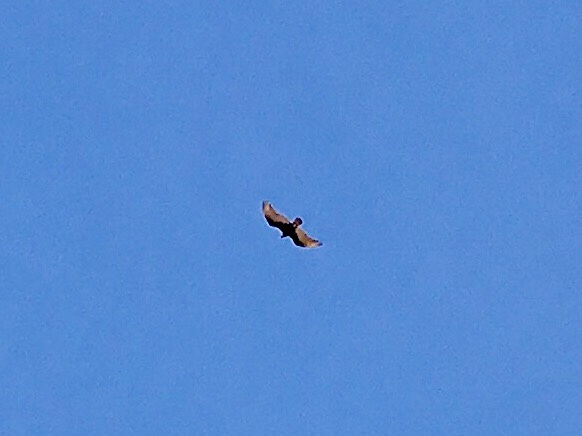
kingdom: Animalia
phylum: Chordata
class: Aves
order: Accipitriformes
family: Cathartidae
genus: Cathartes
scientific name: Cathartes aura
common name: Turkey vulture
